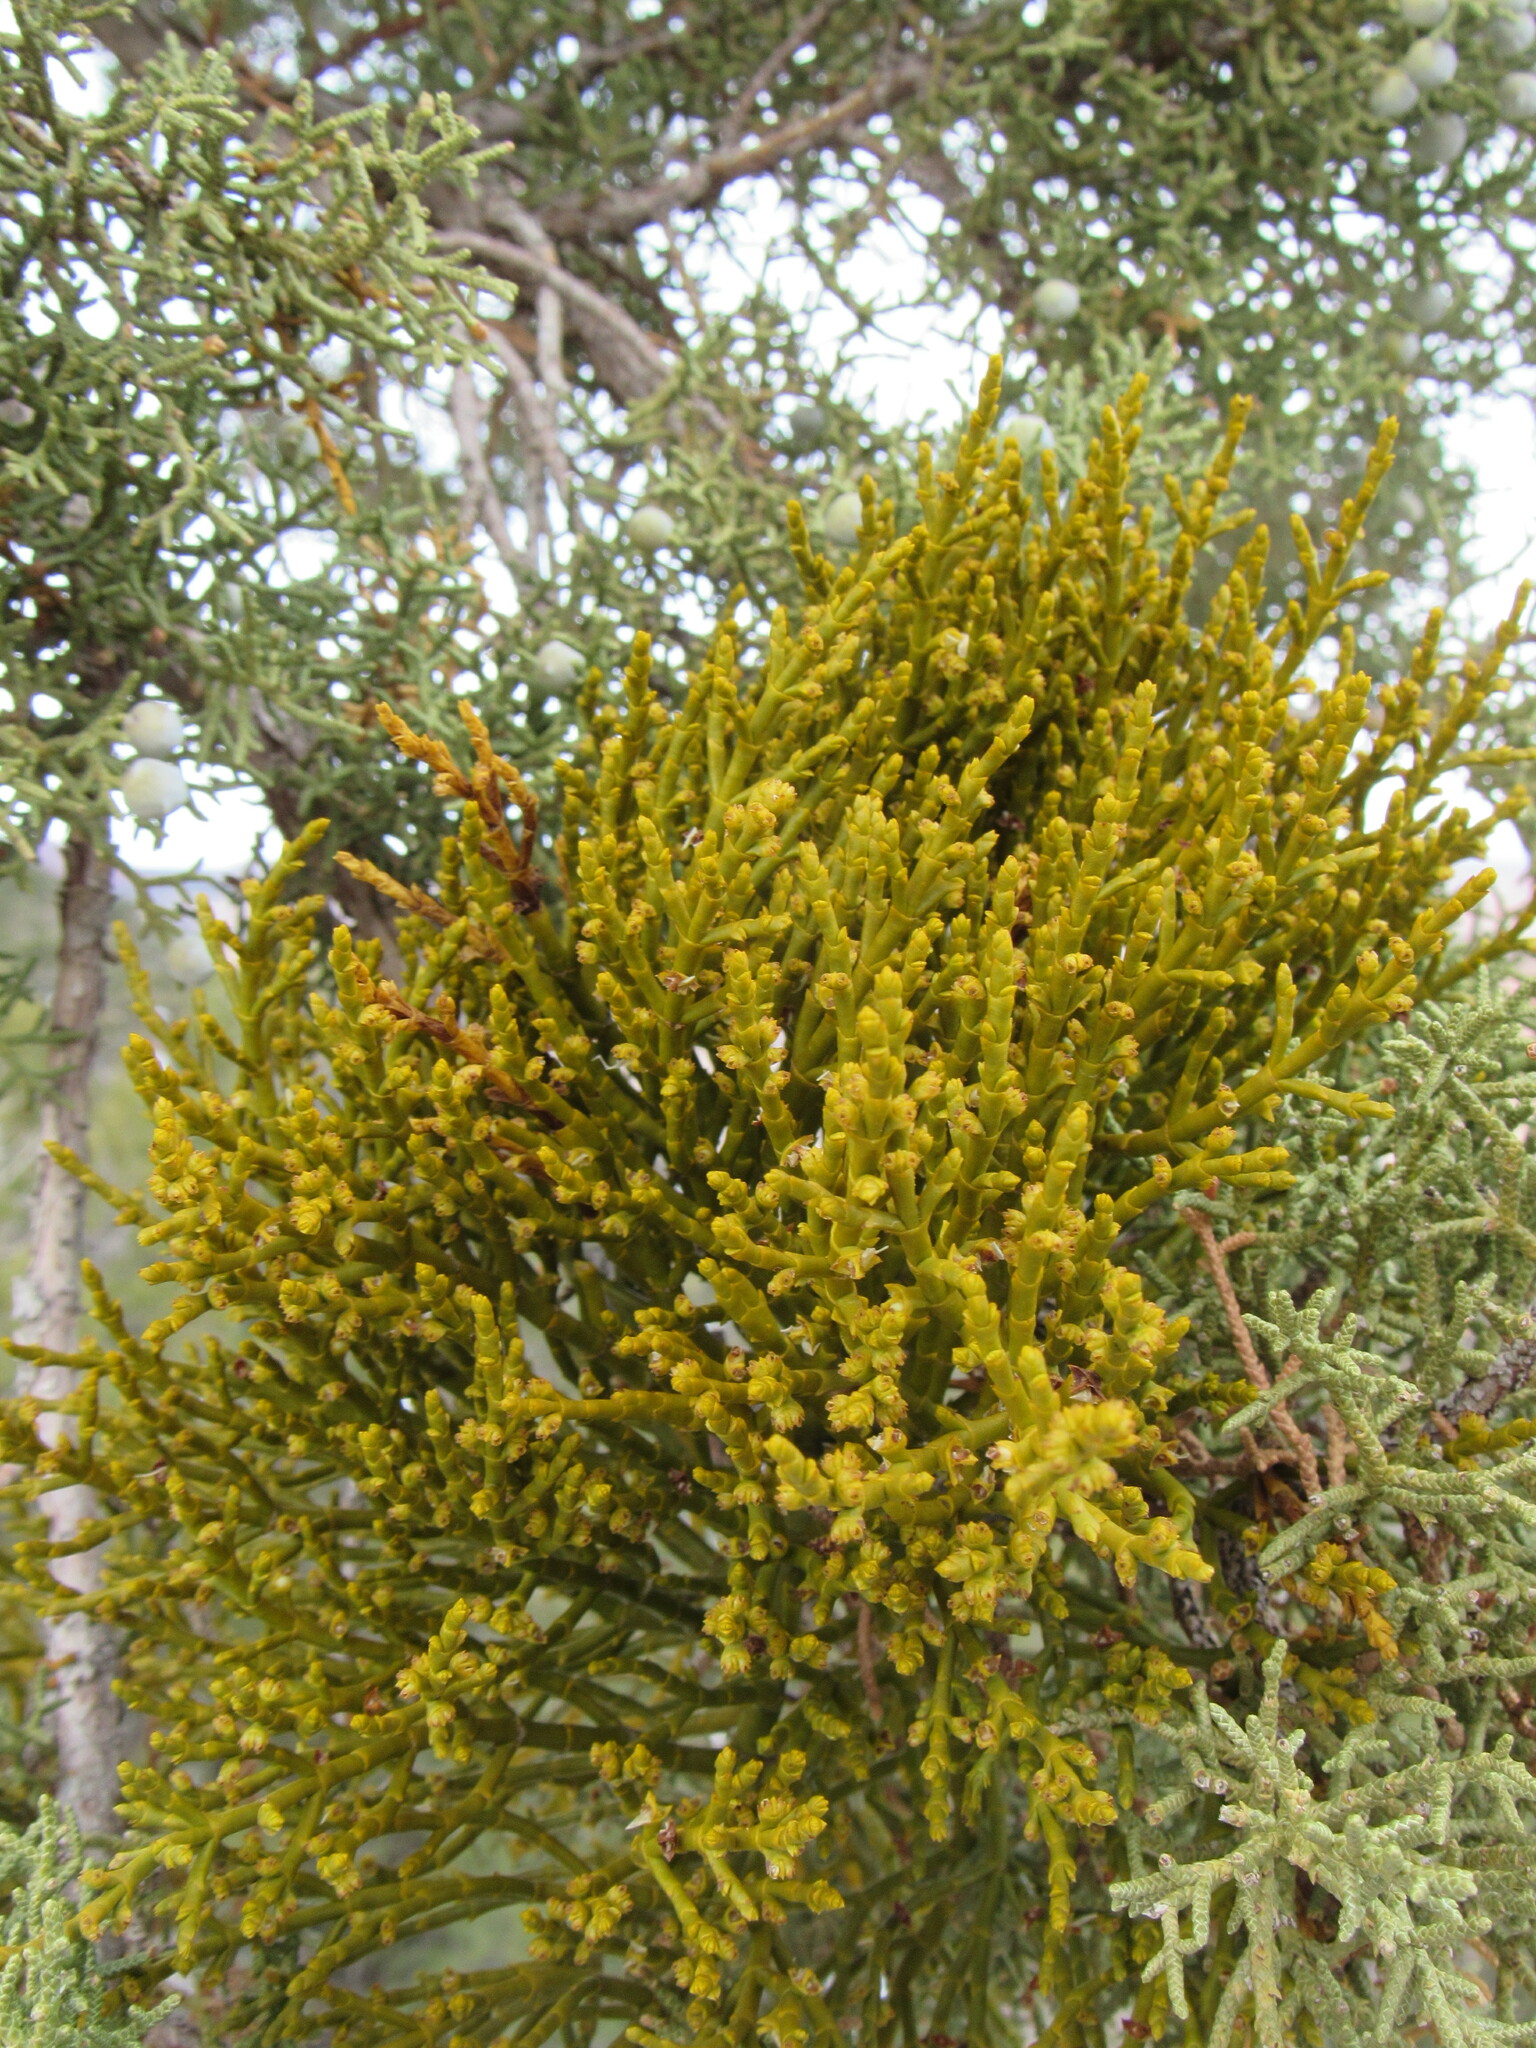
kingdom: Plantae
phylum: Tracheophyta
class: Magnoliopsida
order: Santalales
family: Viscaceae
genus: Phoradendron
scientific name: Phoradendron juniperinum
